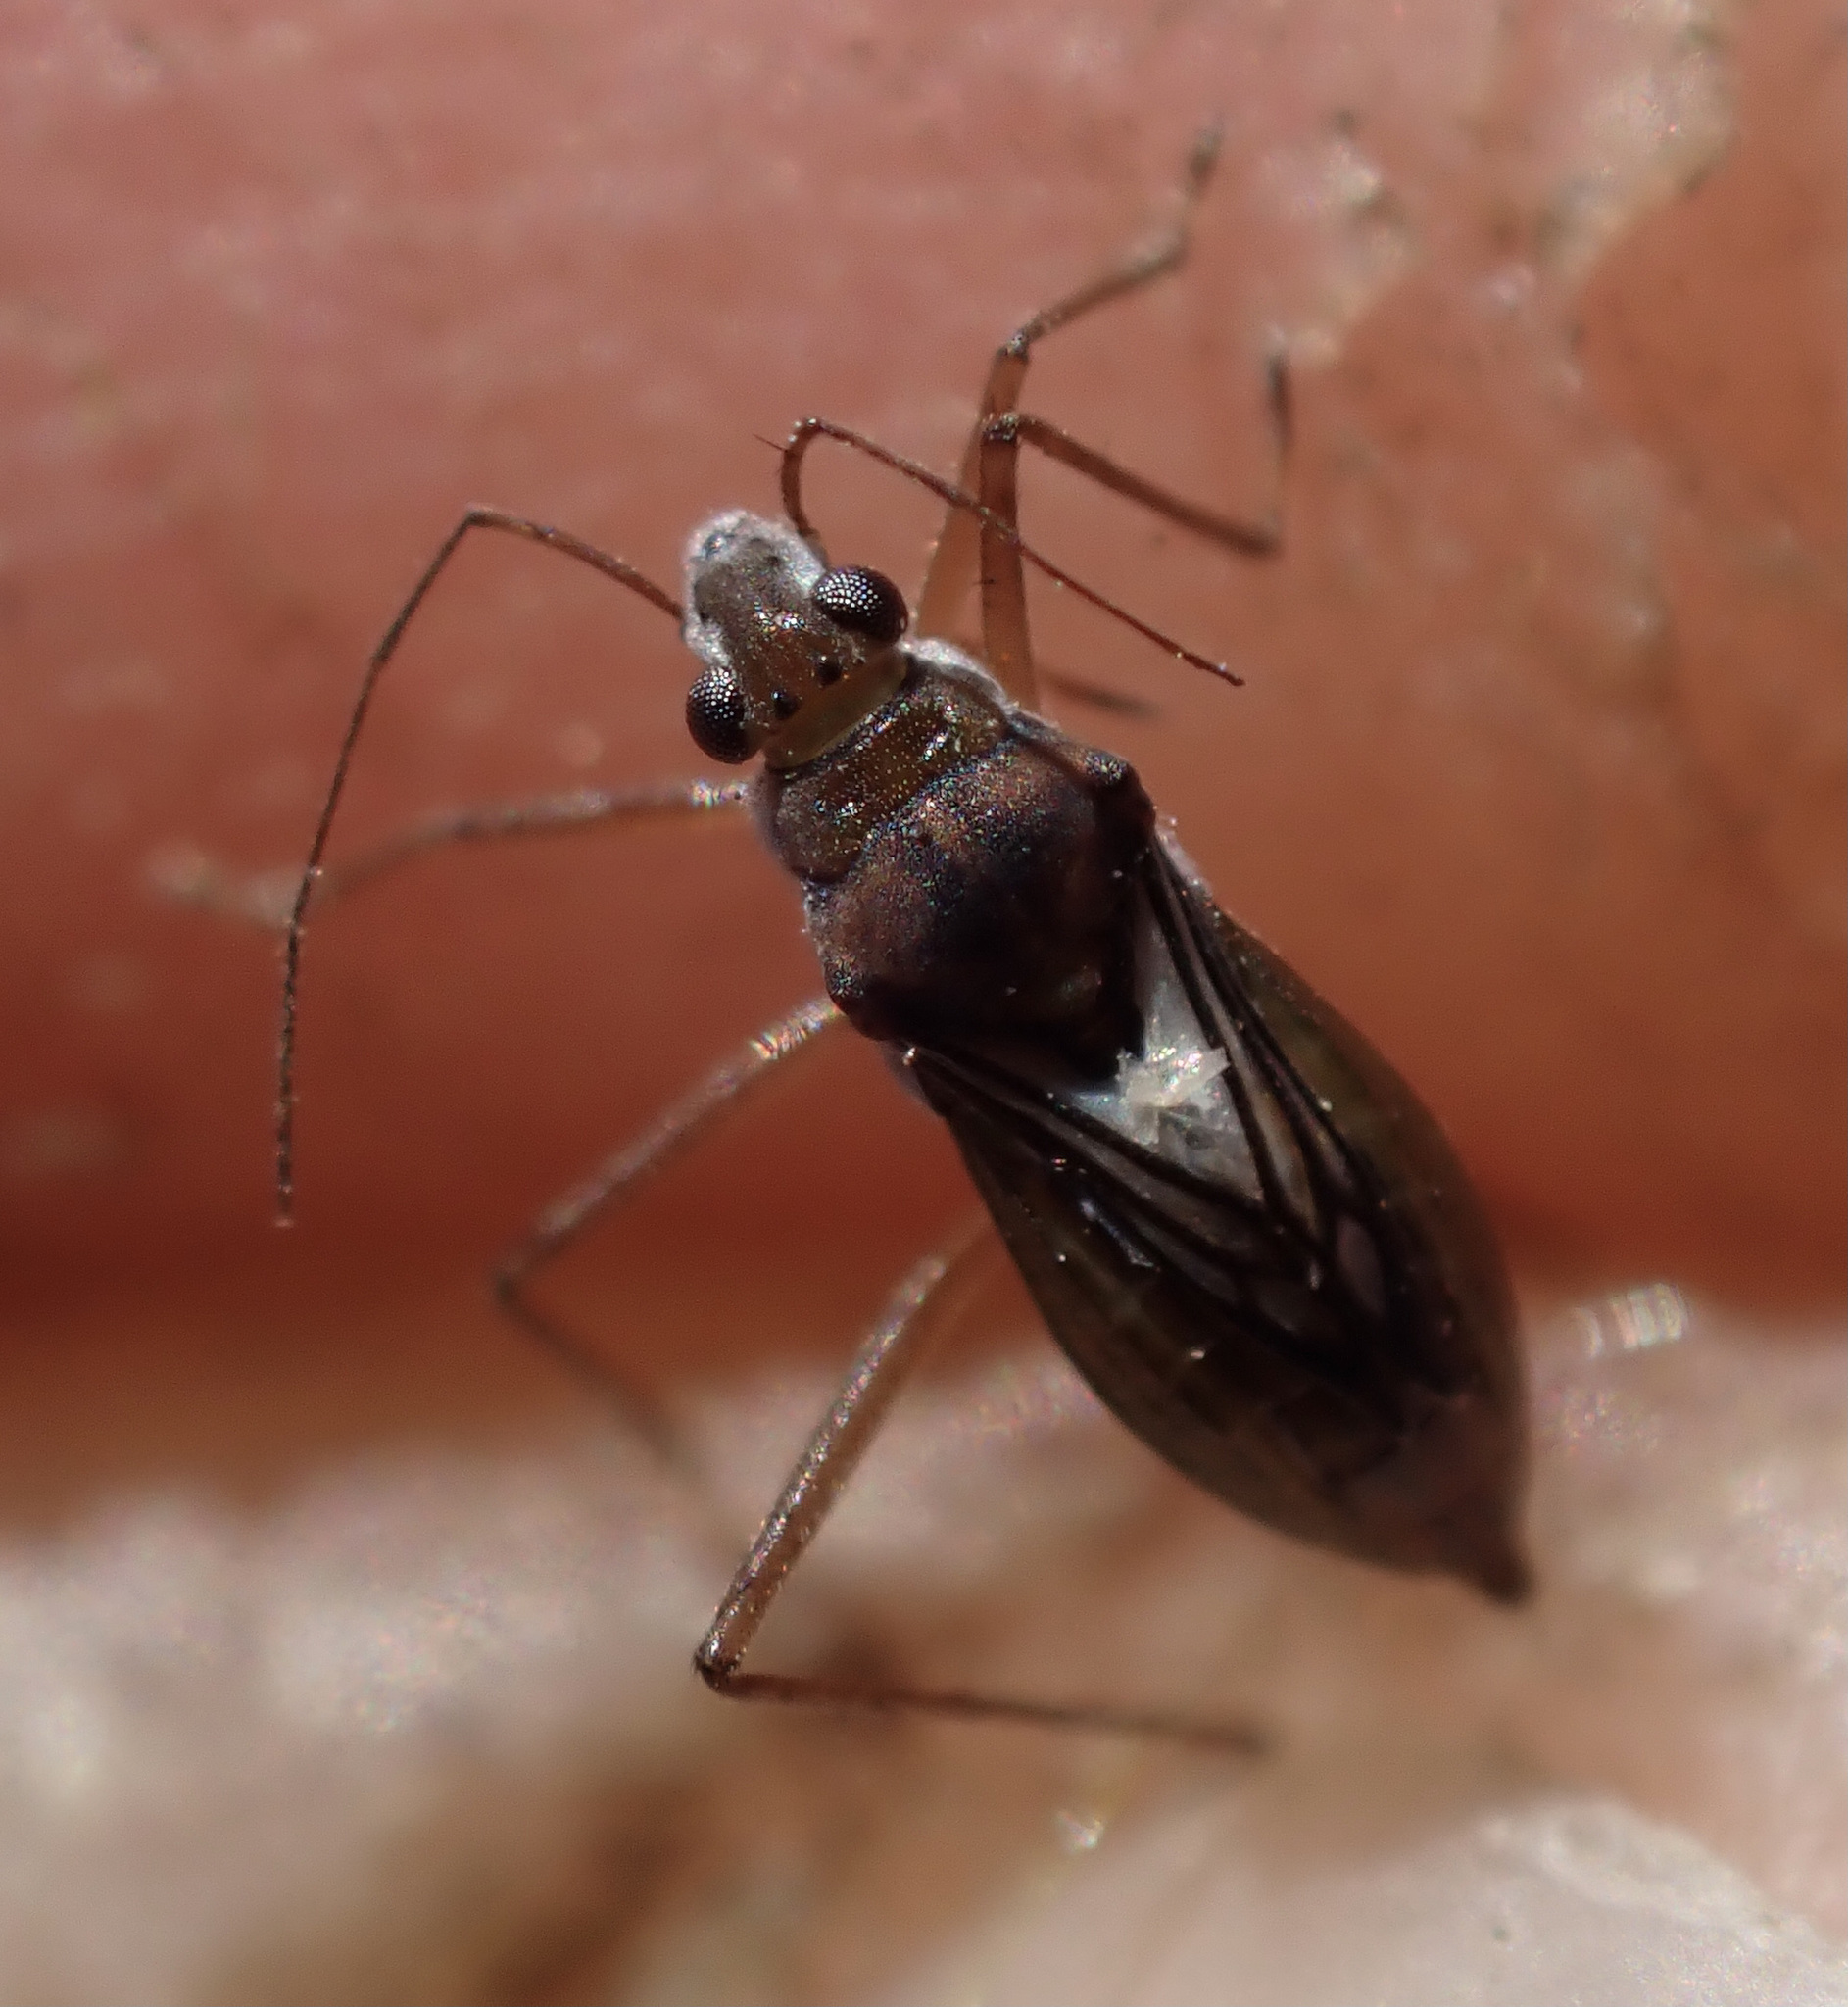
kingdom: Animalia
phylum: Arthropoda
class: Insecta
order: Hemiptera
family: Mesoveliidae
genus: Mesovelia
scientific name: Mesovelia vittigera
